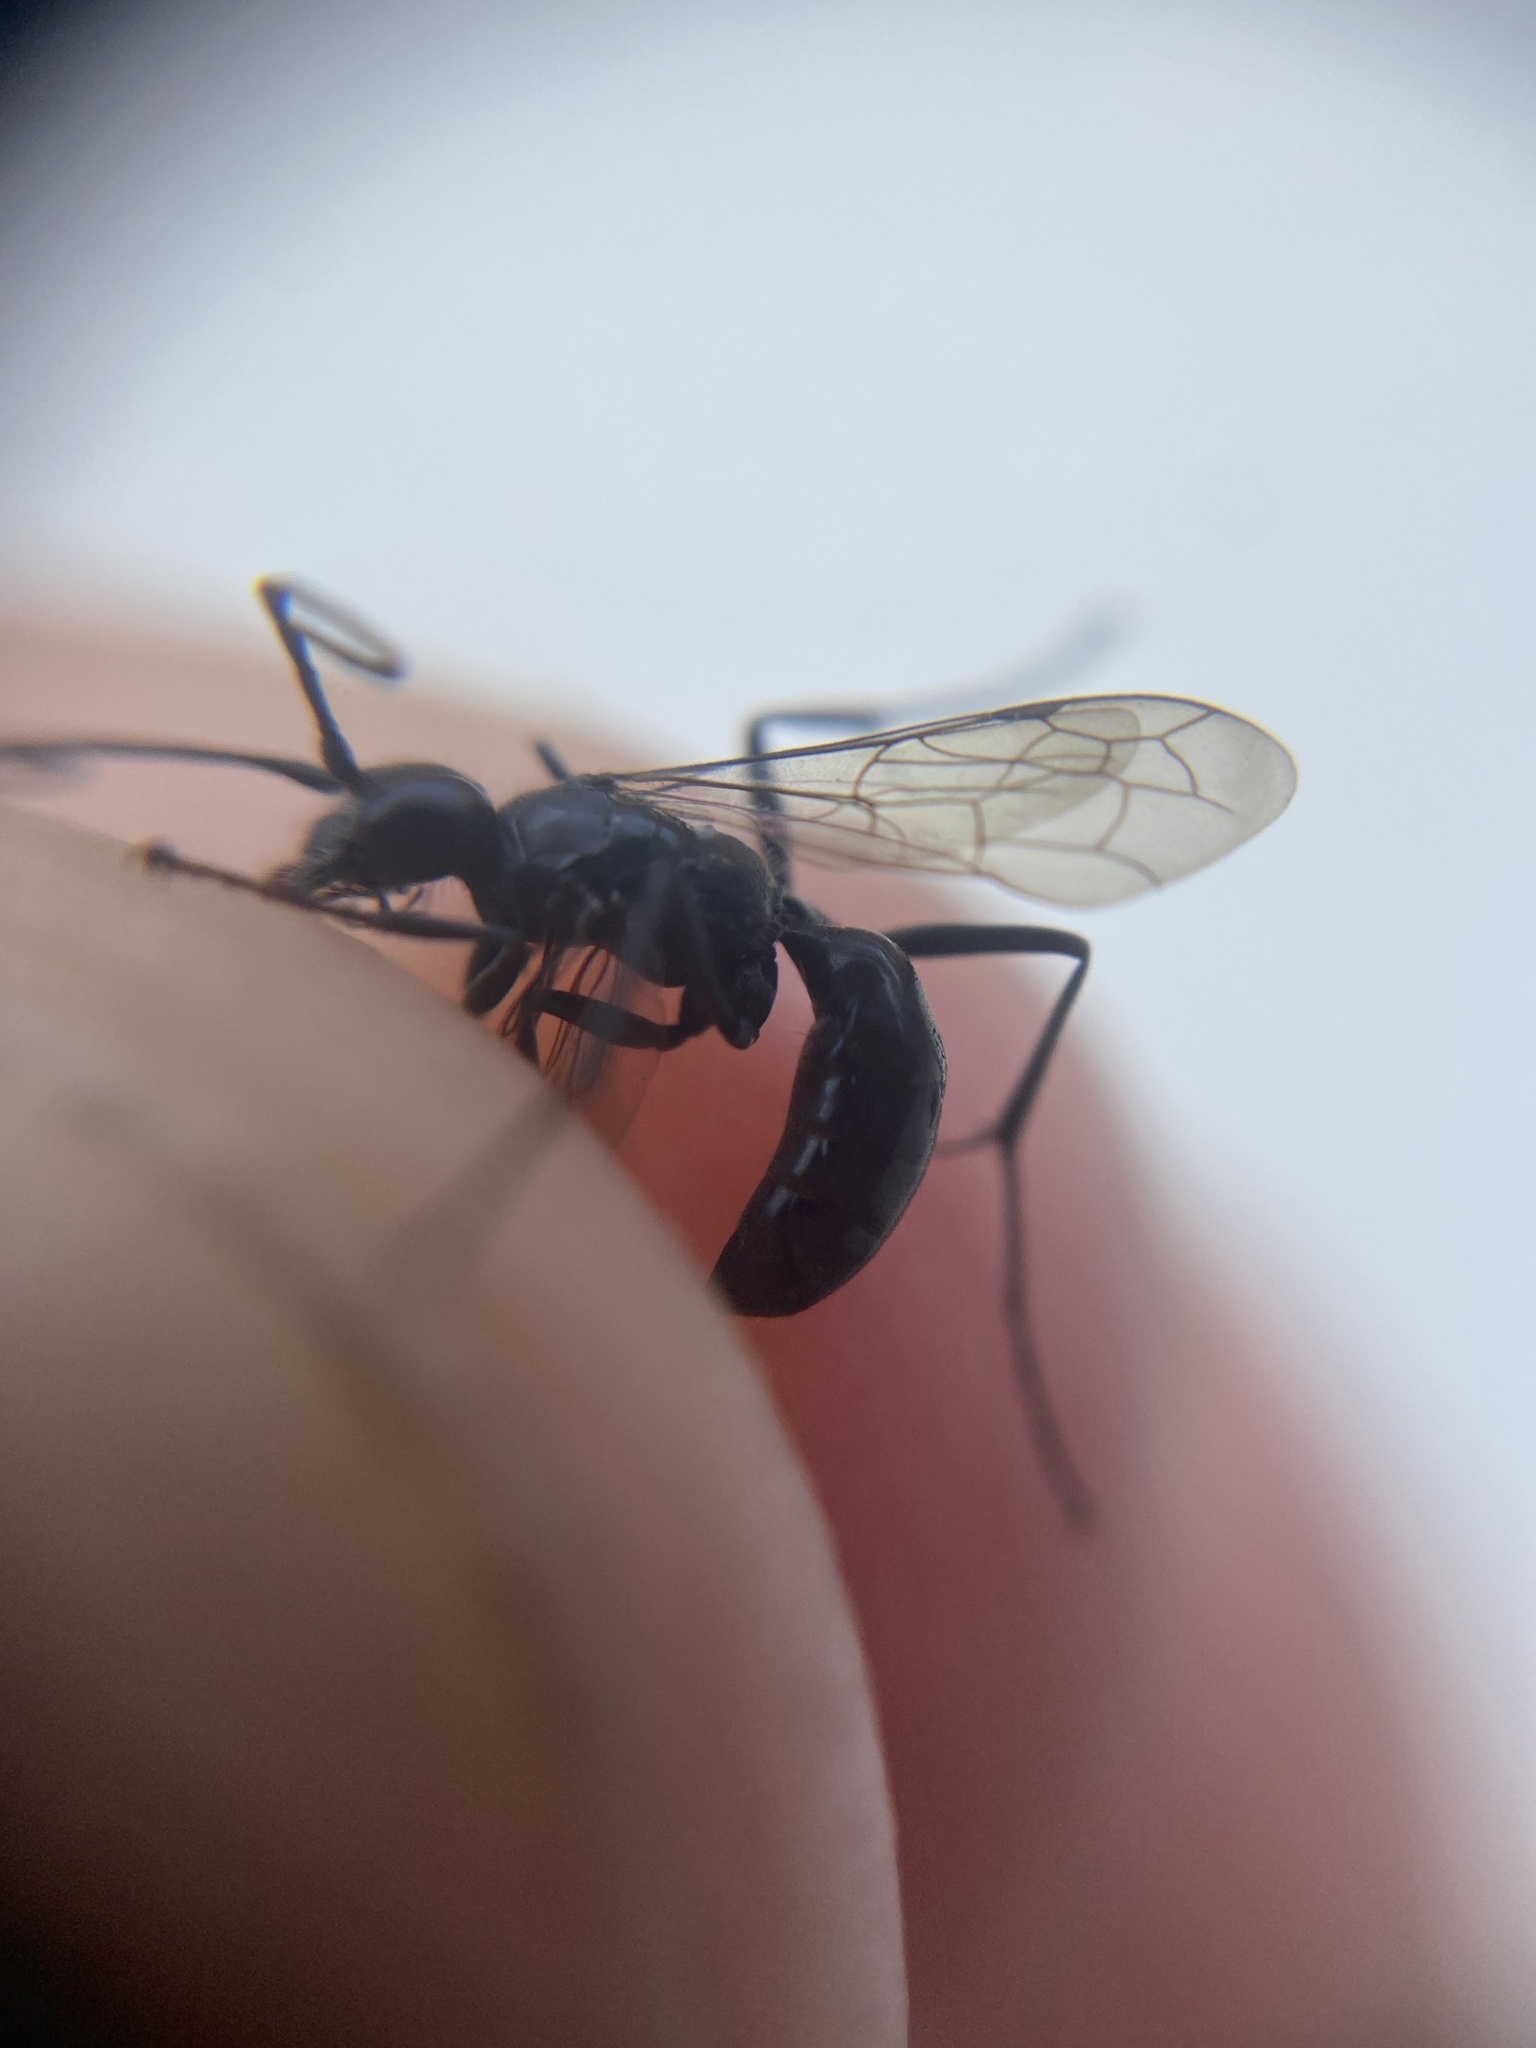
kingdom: Animalia
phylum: Arthropoda
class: Insecta
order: Hymenoptera
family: Pompilidae
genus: Auplopus
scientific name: Auplopus carbonarius
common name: Spider wasp
